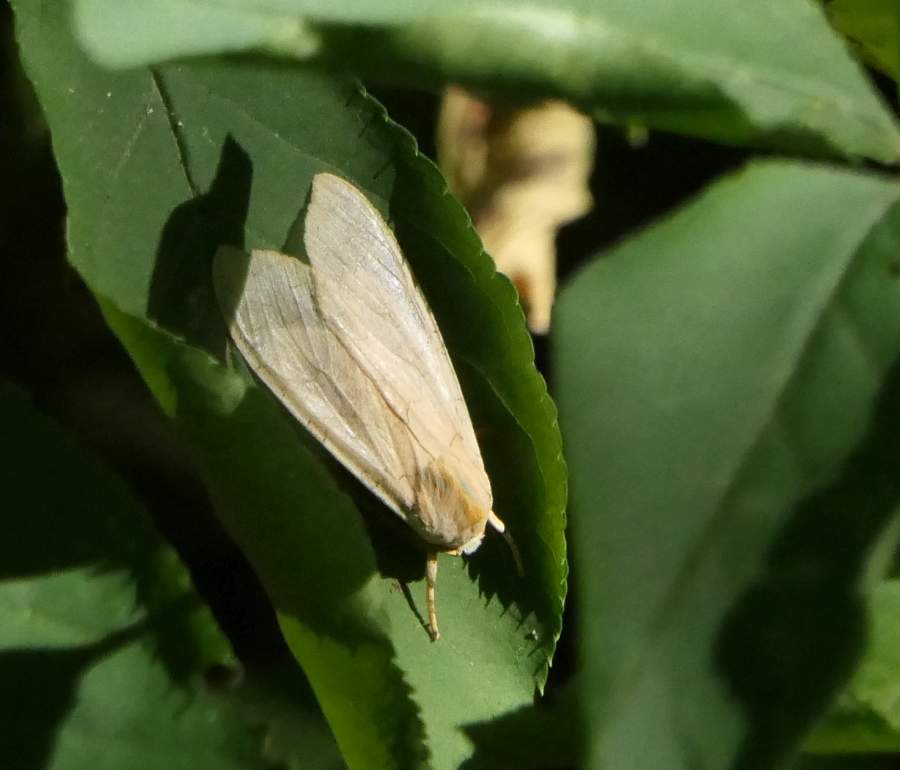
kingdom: Animalia
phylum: Arthropoda
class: Insecta
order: Lepidoptera
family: Erebidae
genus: Halysidota
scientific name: Halysidota tessellaris
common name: Banded tussock moth
